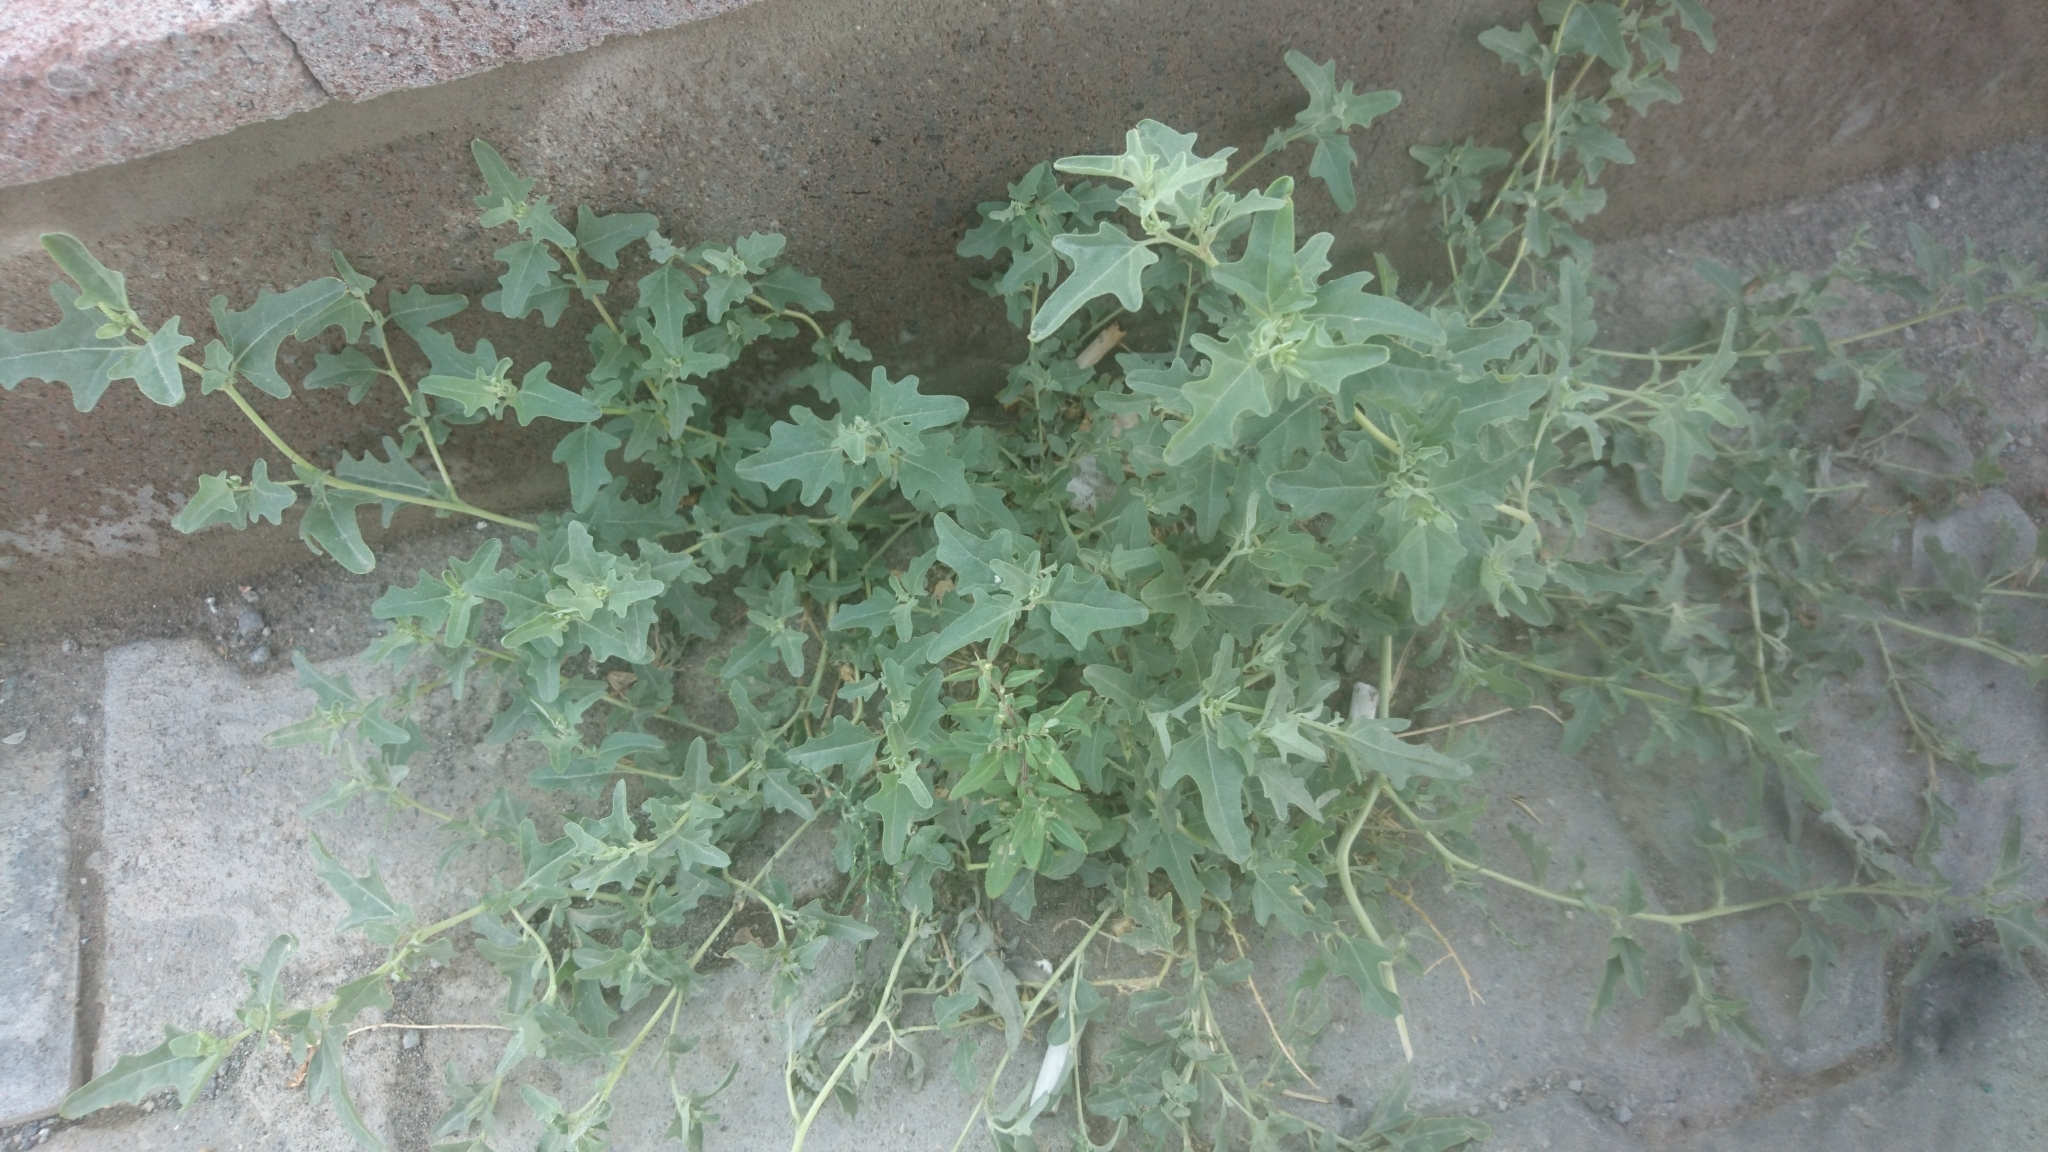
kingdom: Plantae
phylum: Tracheophyta
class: Magnoliopsida
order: Caryophyllales
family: Amaranthaceae
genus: Atriplex
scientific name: Atriplex tatarica
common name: Tatarian orache
